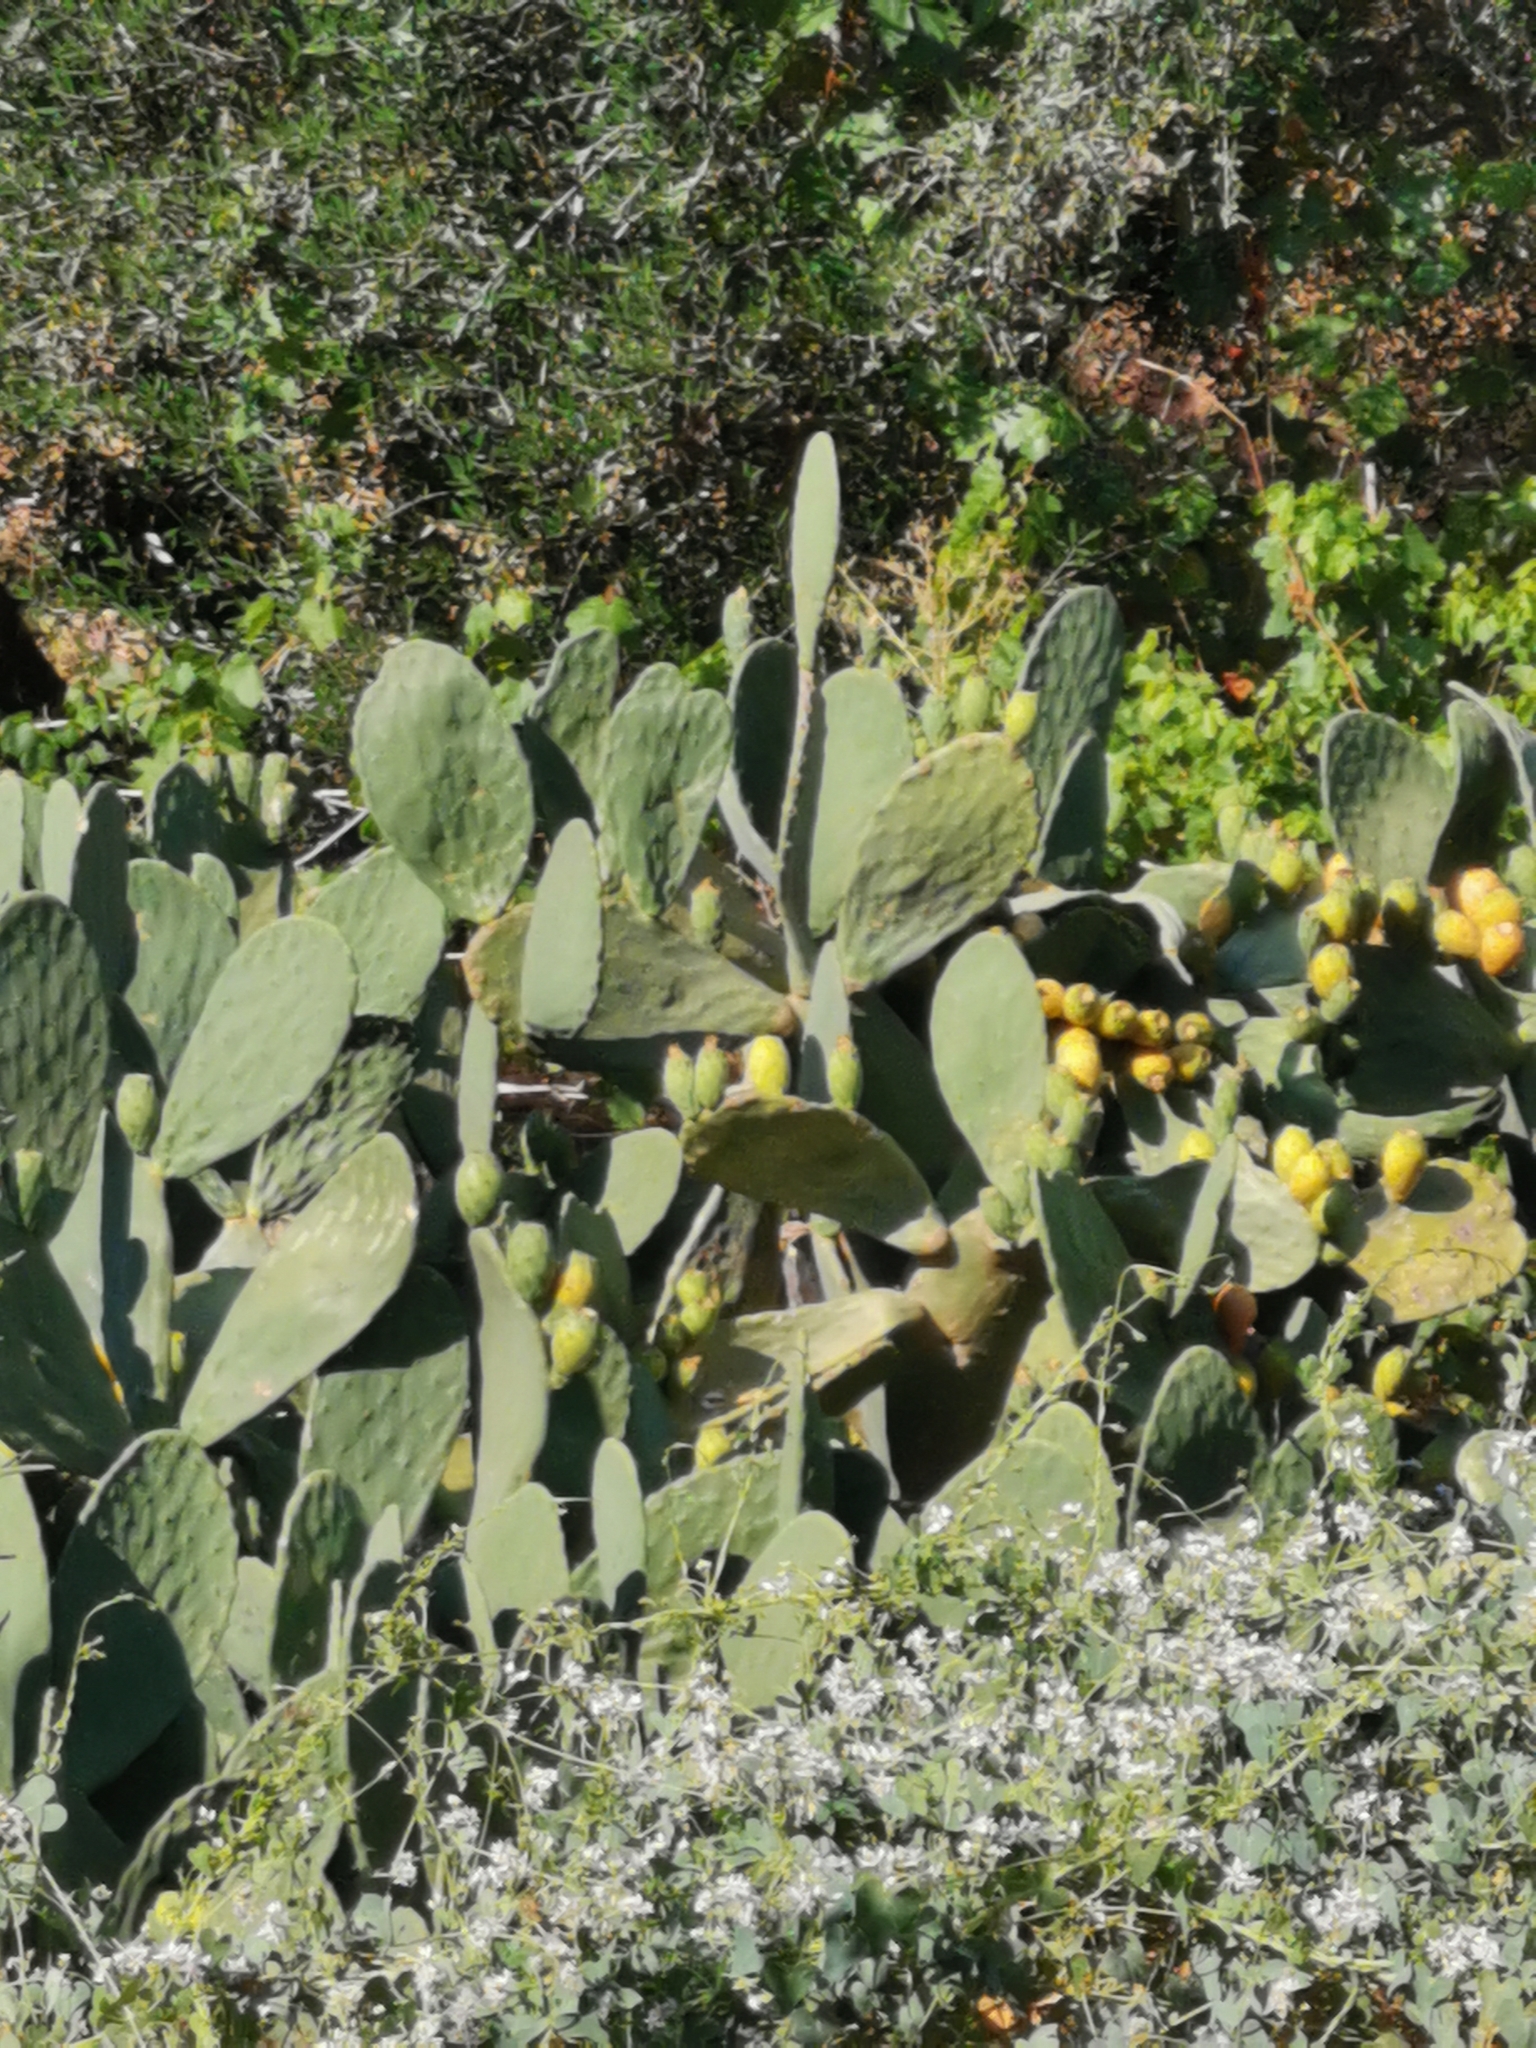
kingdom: Plantae
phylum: Tracheophyta
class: Magnoliopsida
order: Caryophyllales
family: Cactaceae
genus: Opuntia
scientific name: Opuntia ficus-indica
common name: Barbary fig
